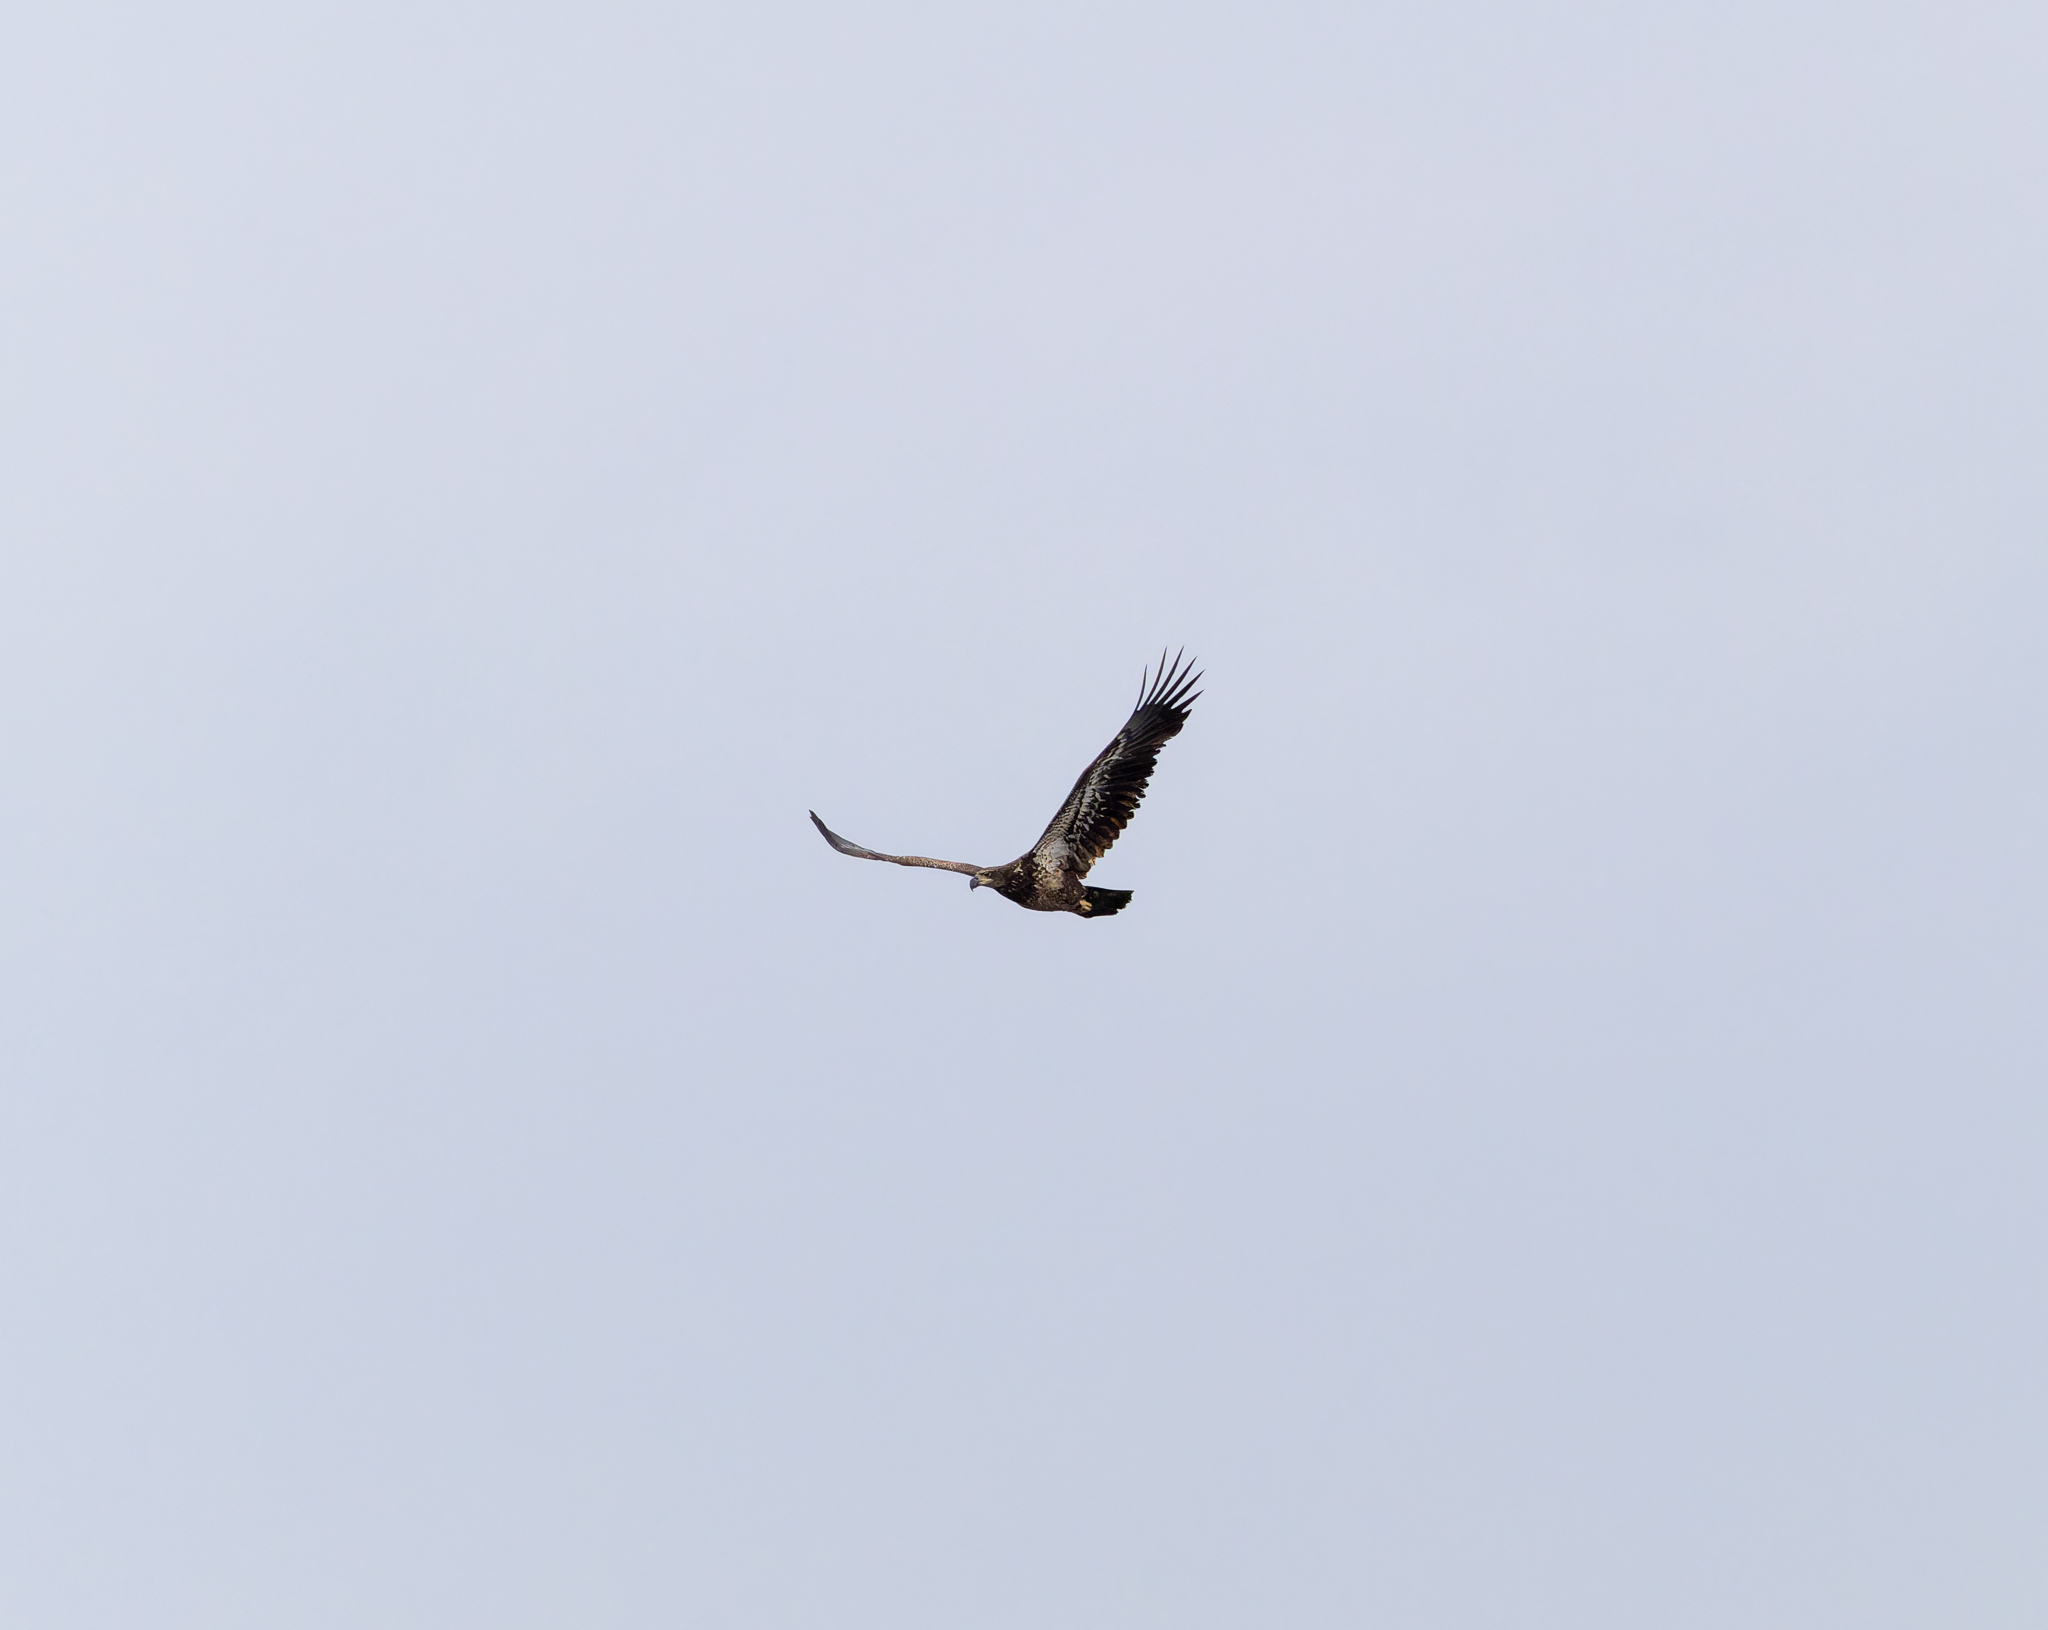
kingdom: Animalia
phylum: Chordata
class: Aves
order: Accipitriformes
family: Accipitridae
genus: Haliaeetus
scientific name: Haliaeetus leucocephalus
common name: Bald eagle
